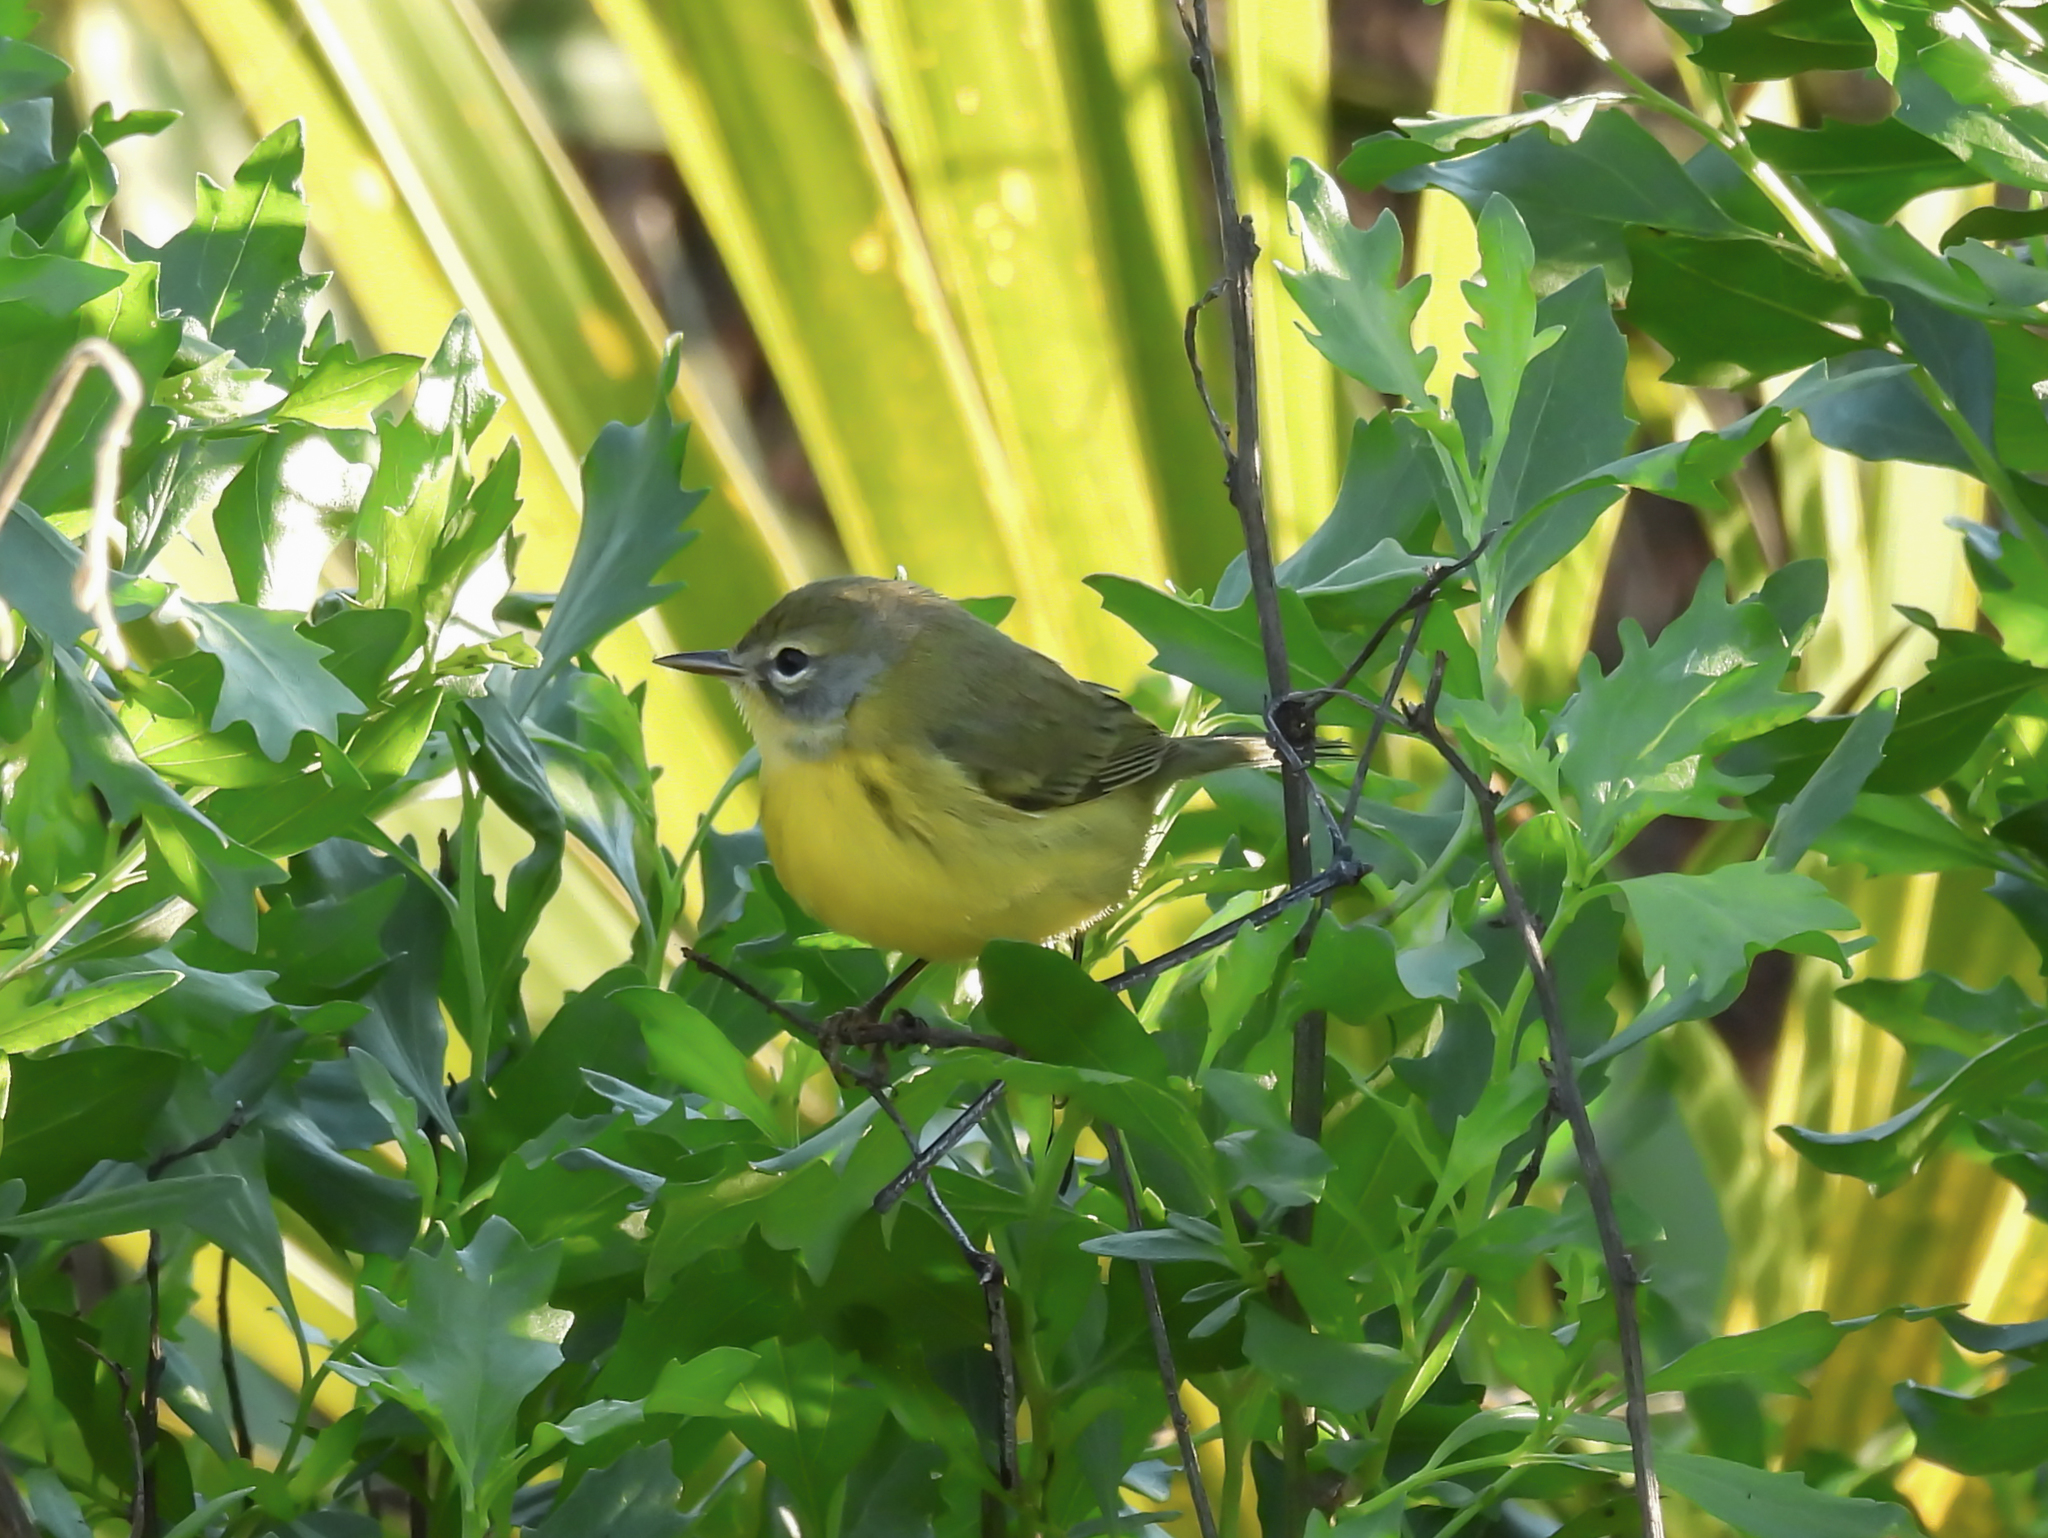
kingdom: Animalia
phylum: Chordata
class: Aves
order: Passeriformes
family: Parulidae
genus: Setophaga
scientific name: Setophaga discolor
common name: Prairie warbler
